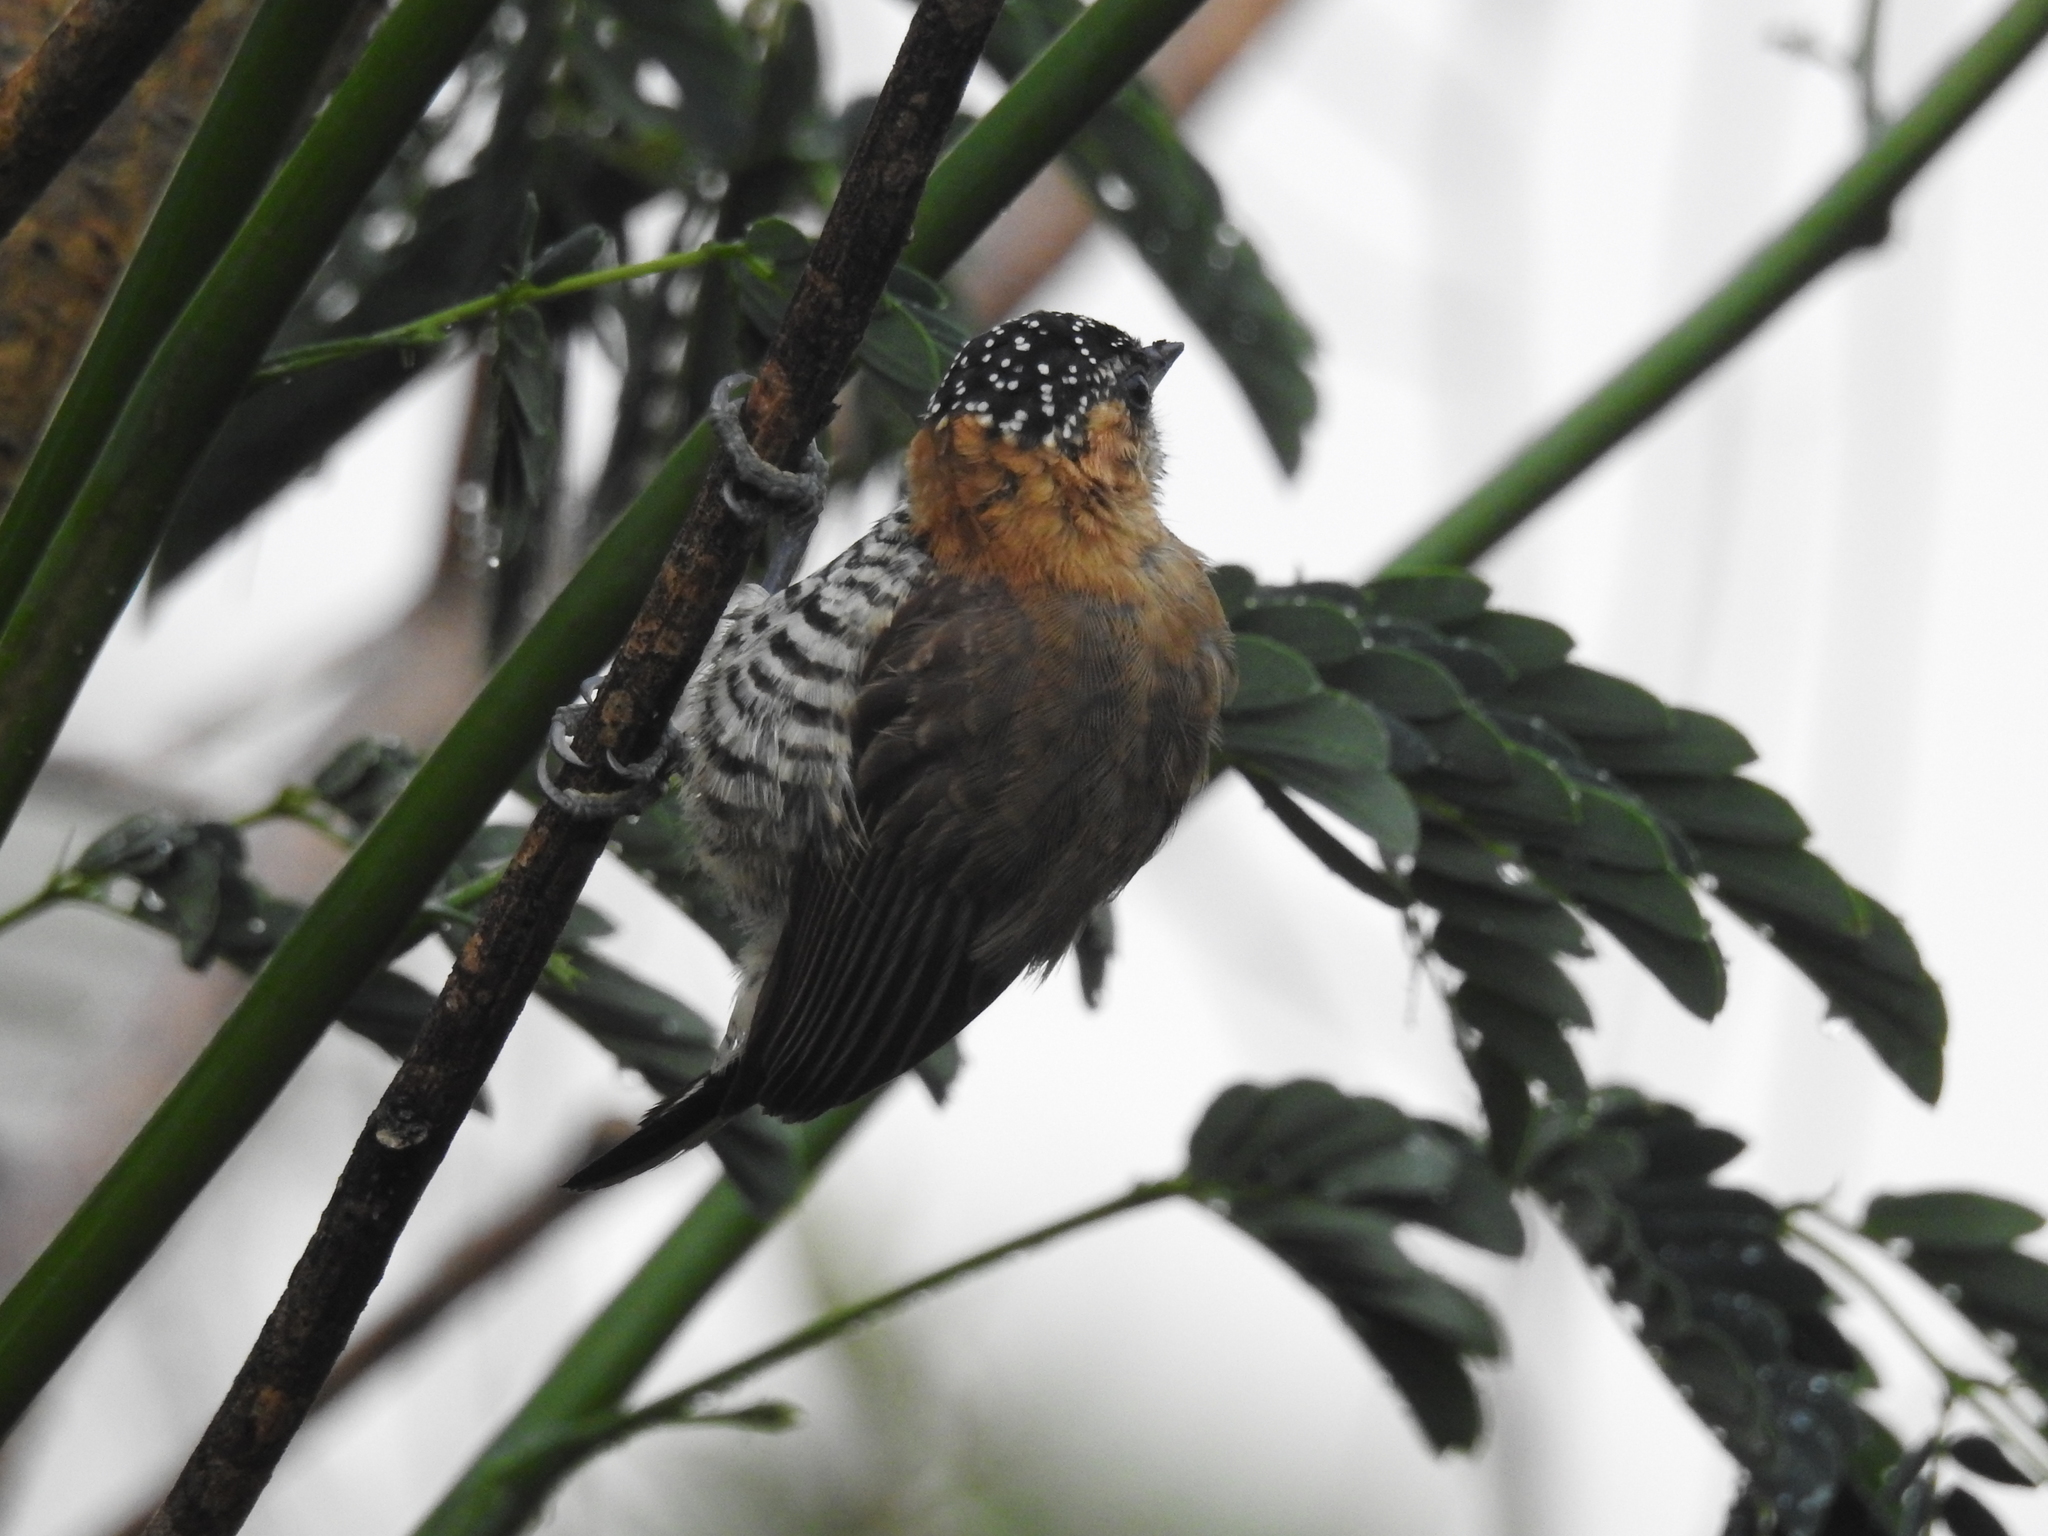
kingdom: Animalia
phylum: Chordata
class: Aves
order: Piciformes
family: Picidae
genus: Picumnus
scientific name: Picumnus temminckii
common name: Ochre-collared piculet
